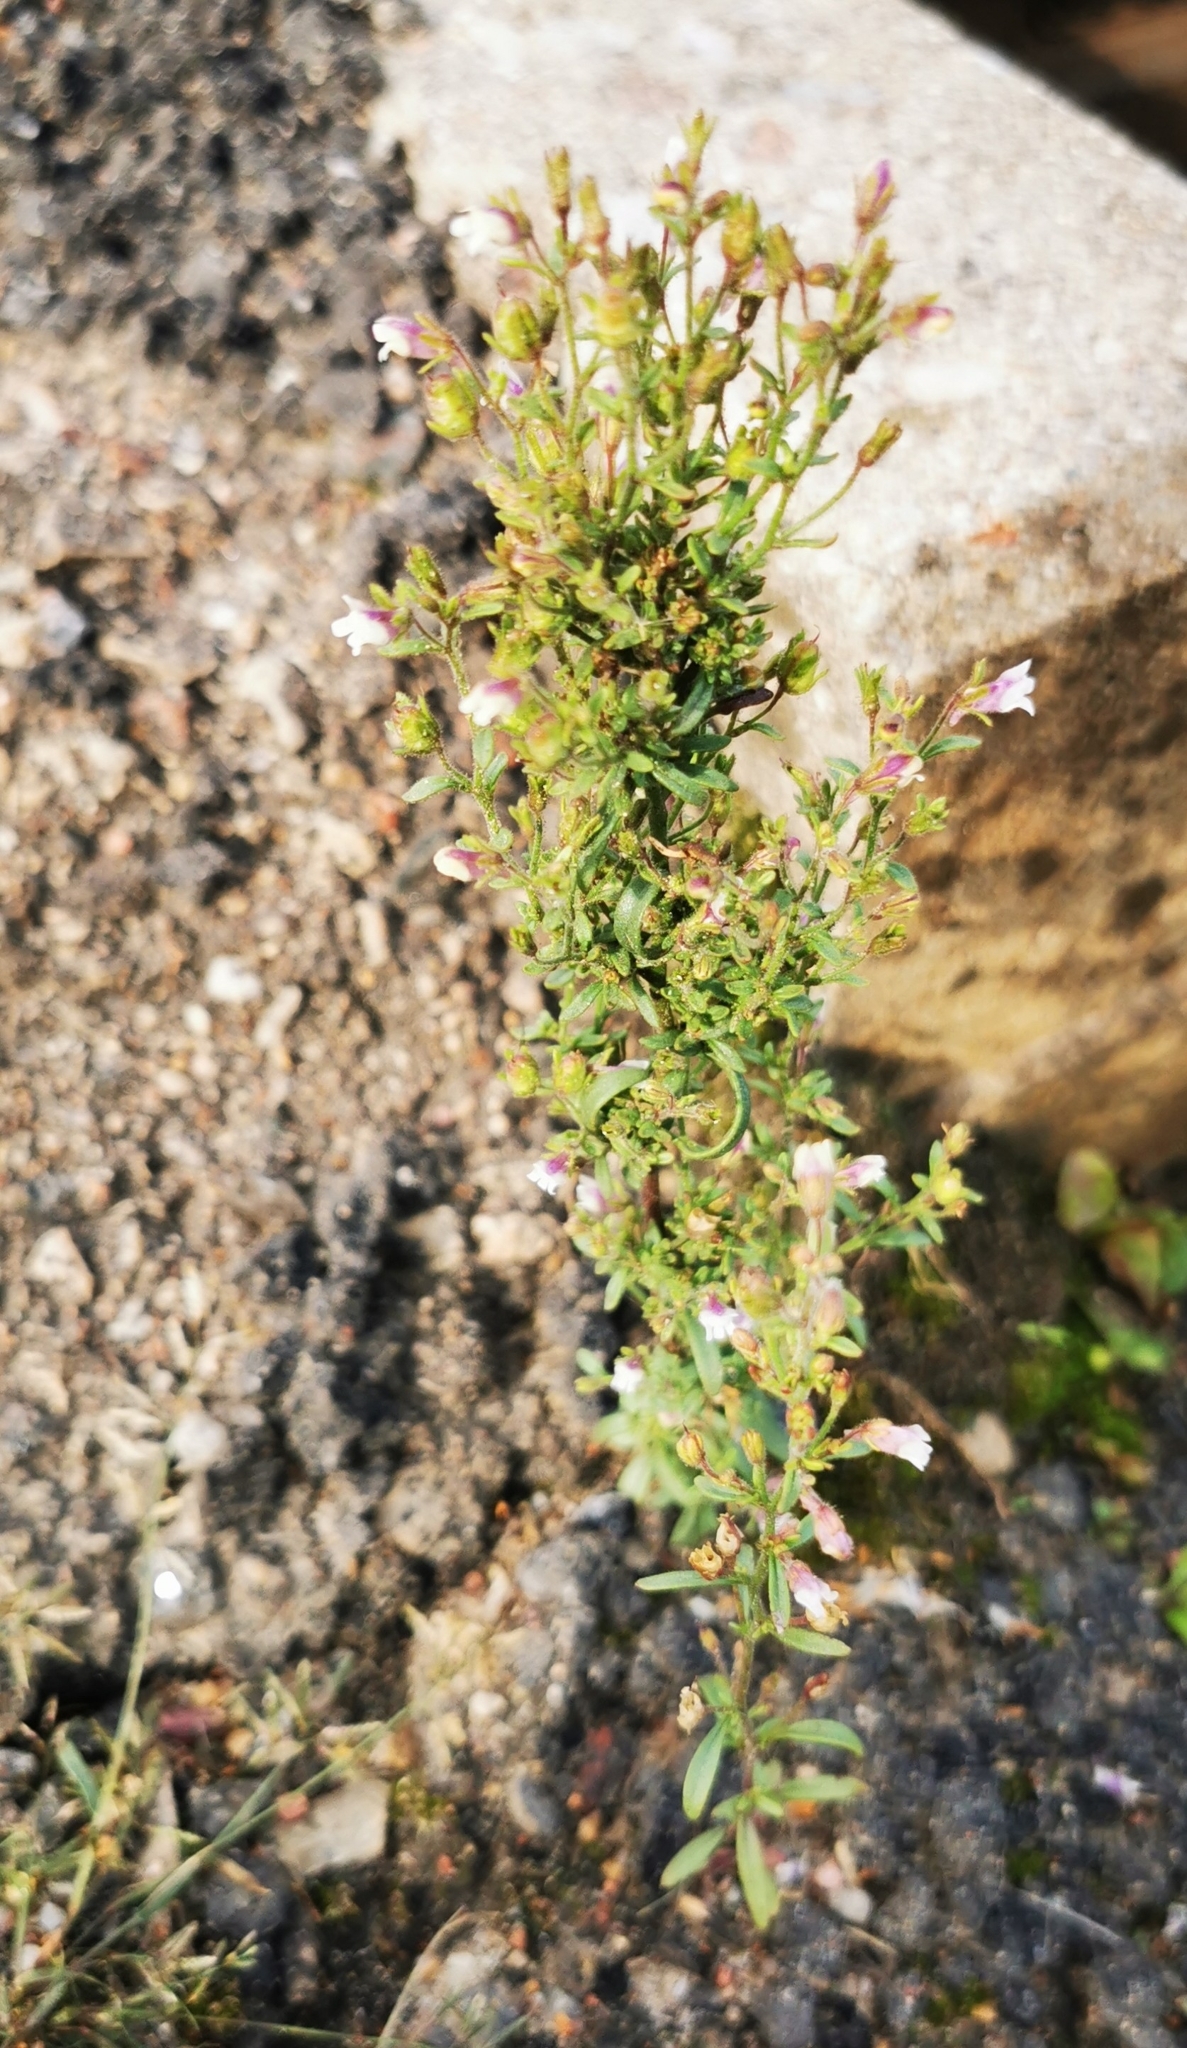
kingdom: Plantae
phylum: Tracheophyta
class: Magnoliopsida
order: Lamiales
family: Plantaginaceae
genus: Chaenorhinum
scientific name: Chaenorhinum minus
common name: Dwarf snapdragon
